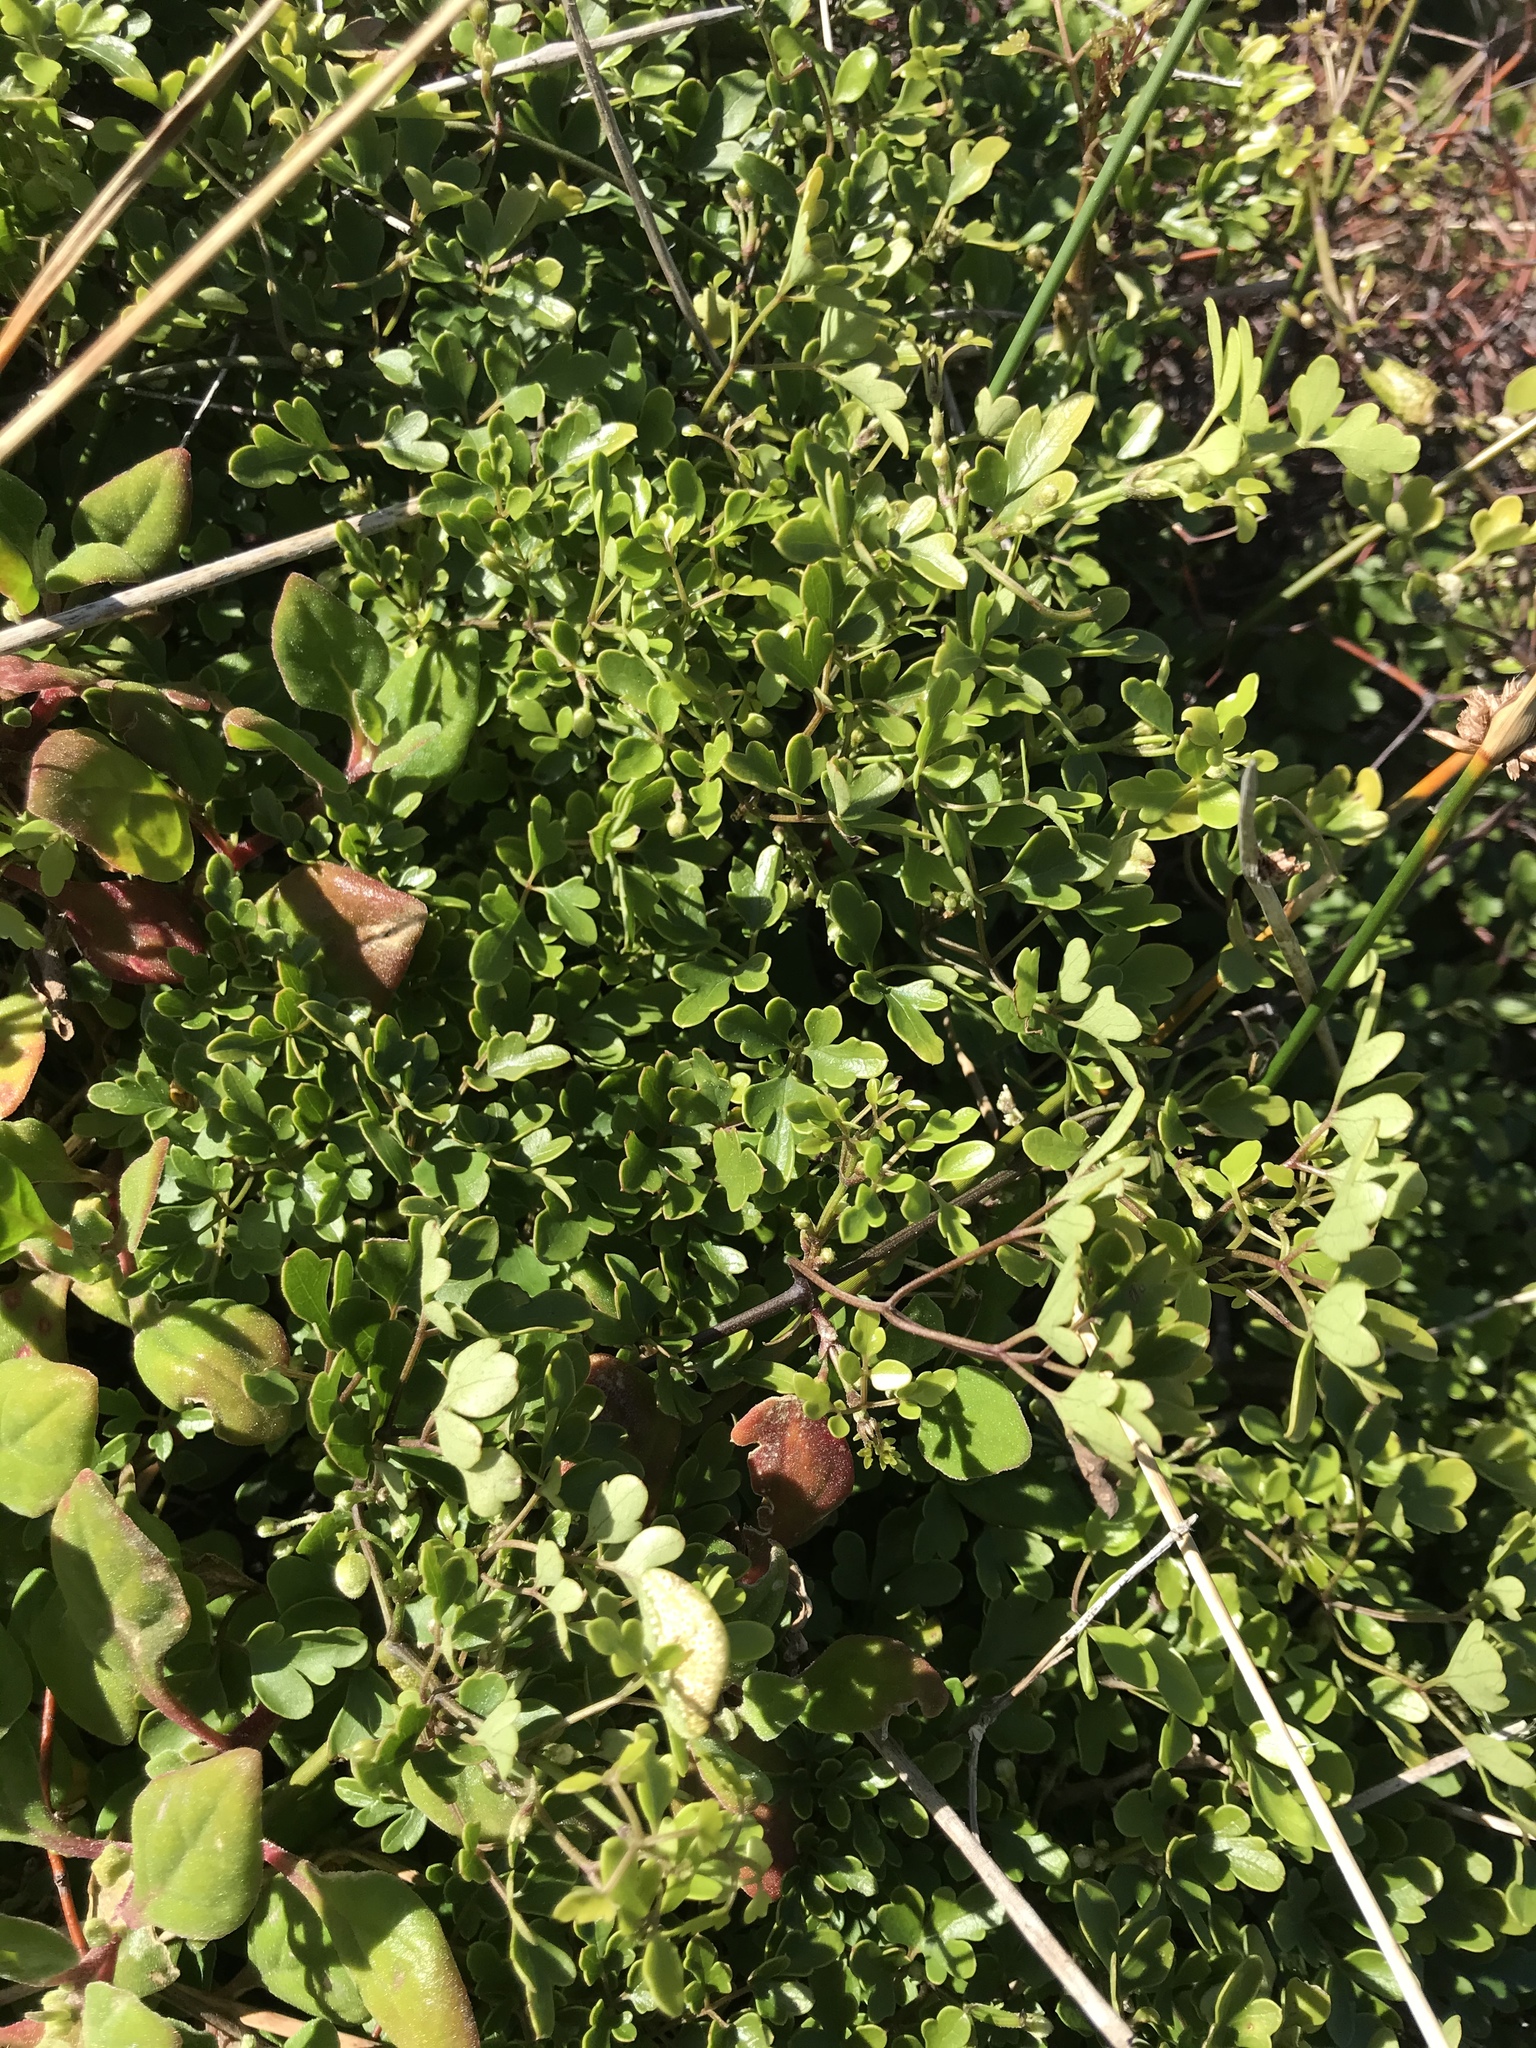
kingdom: Plantae
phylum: Tracheophyta
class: Magnoliopsida
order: Ranunculales
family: Ranunculaceae
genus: Clematis
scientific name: Clematis forsteri
